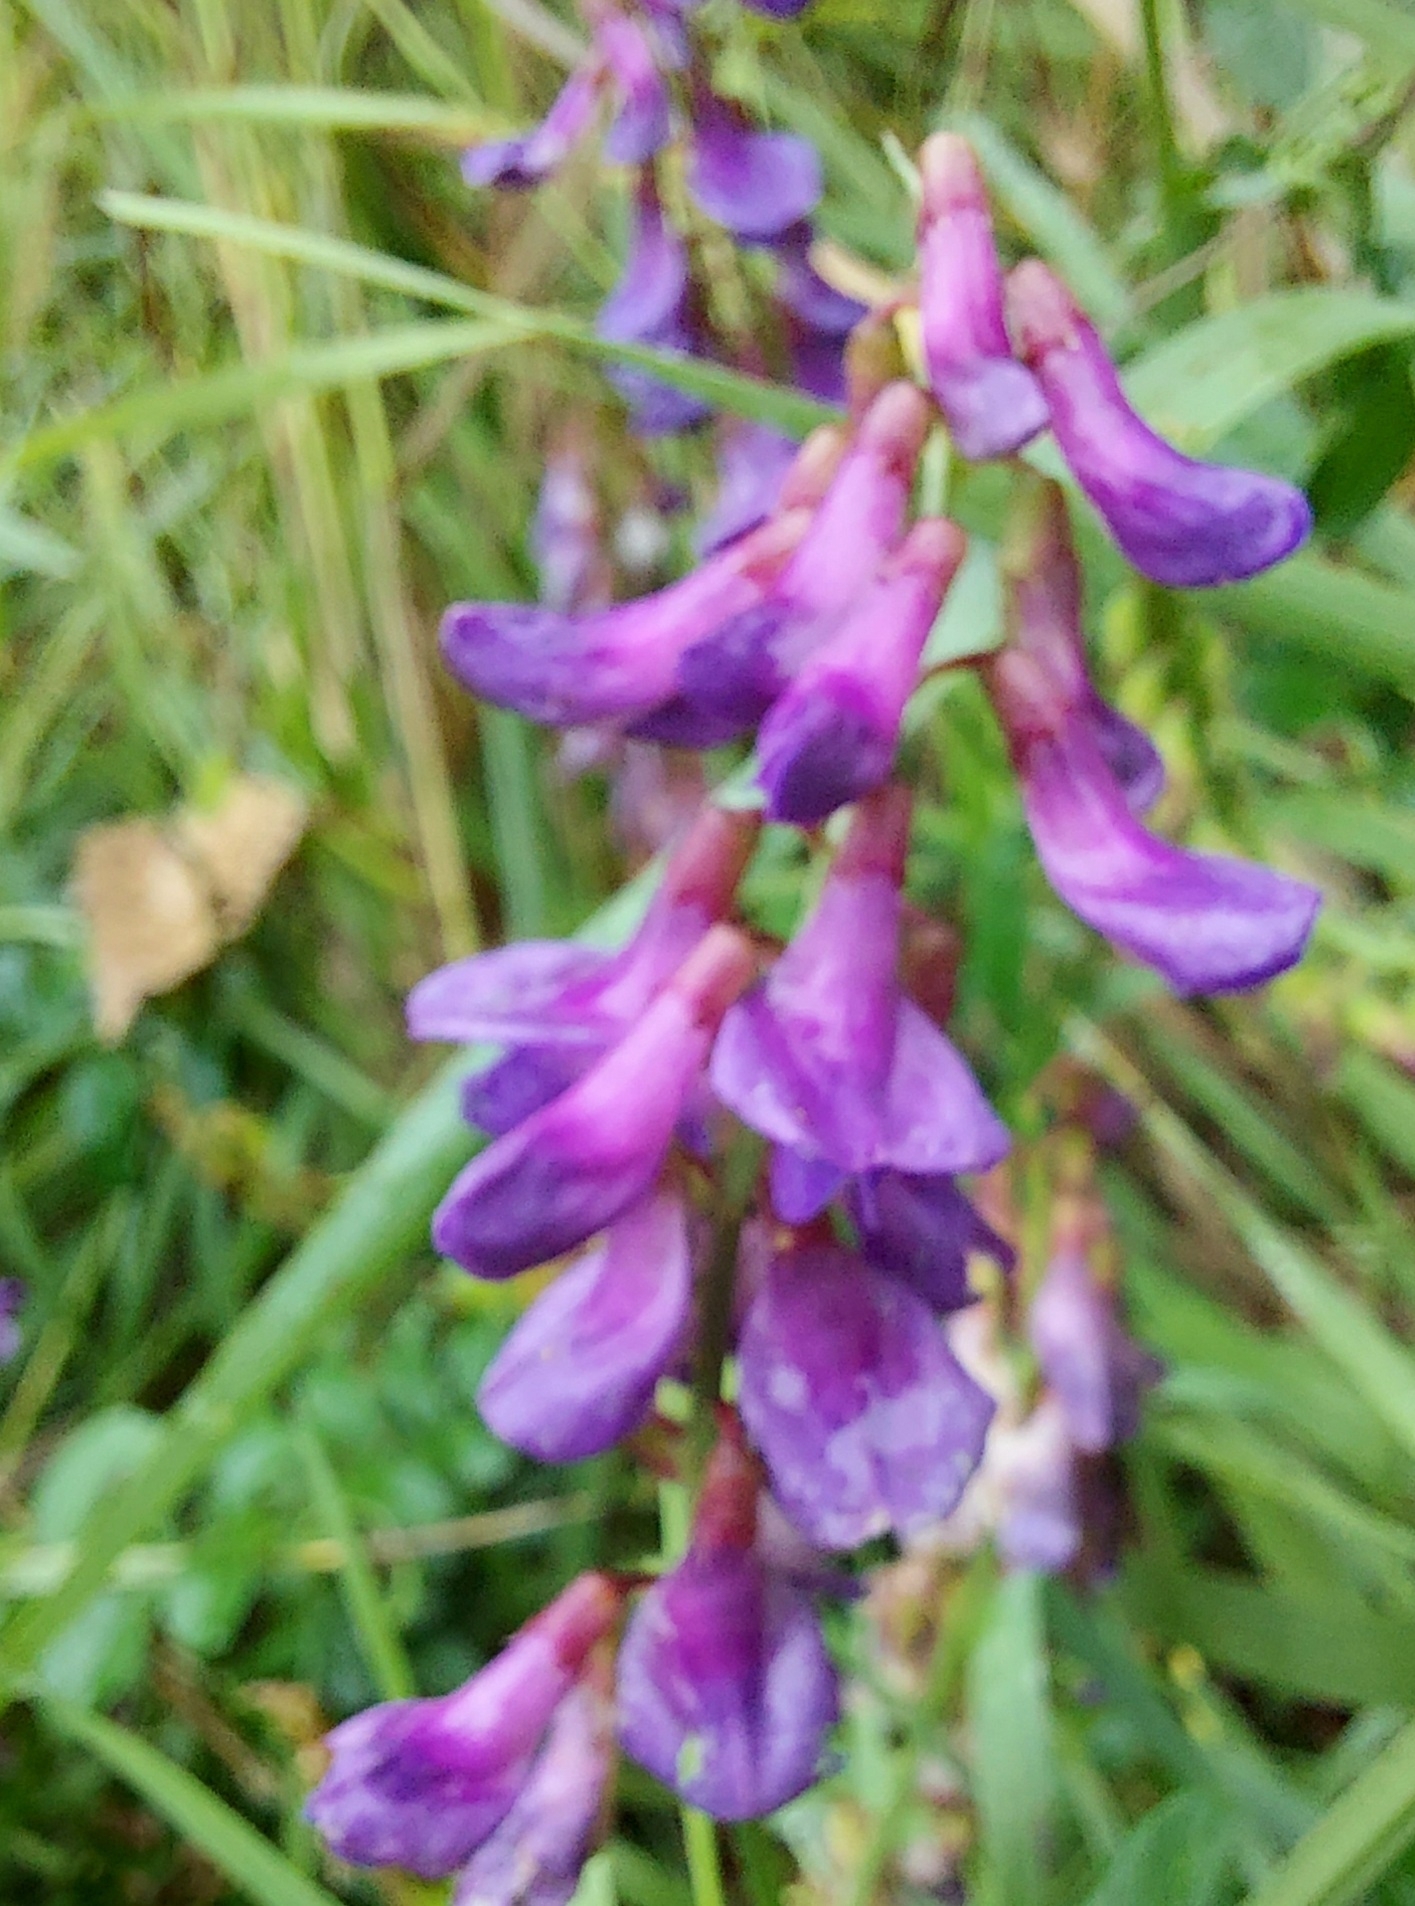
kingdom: Plantae
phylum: Tracheophyta
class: Magnoliopsida
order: Fabales
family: Fabaceae
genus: Vicia
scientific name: Vicia amoena
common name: Cheder ebs
